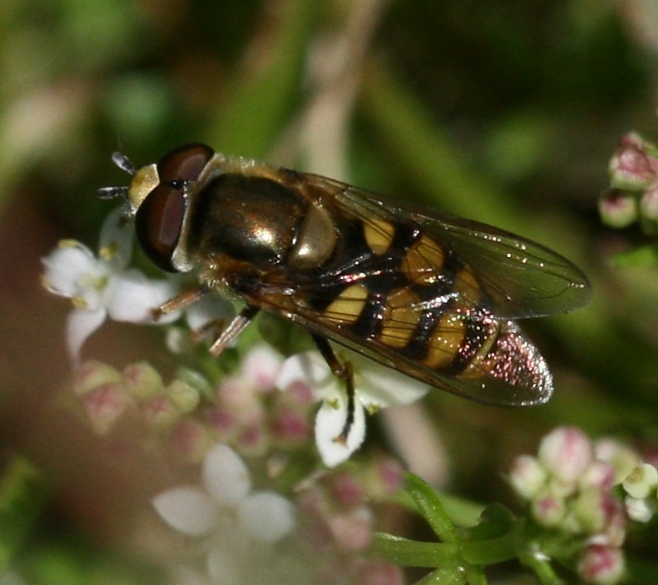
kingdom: Animalia
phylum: Arthropoda
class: Insecta
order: Diptera
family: Syrphidae
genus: Eupeodes
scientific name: Eupeodes corollae
